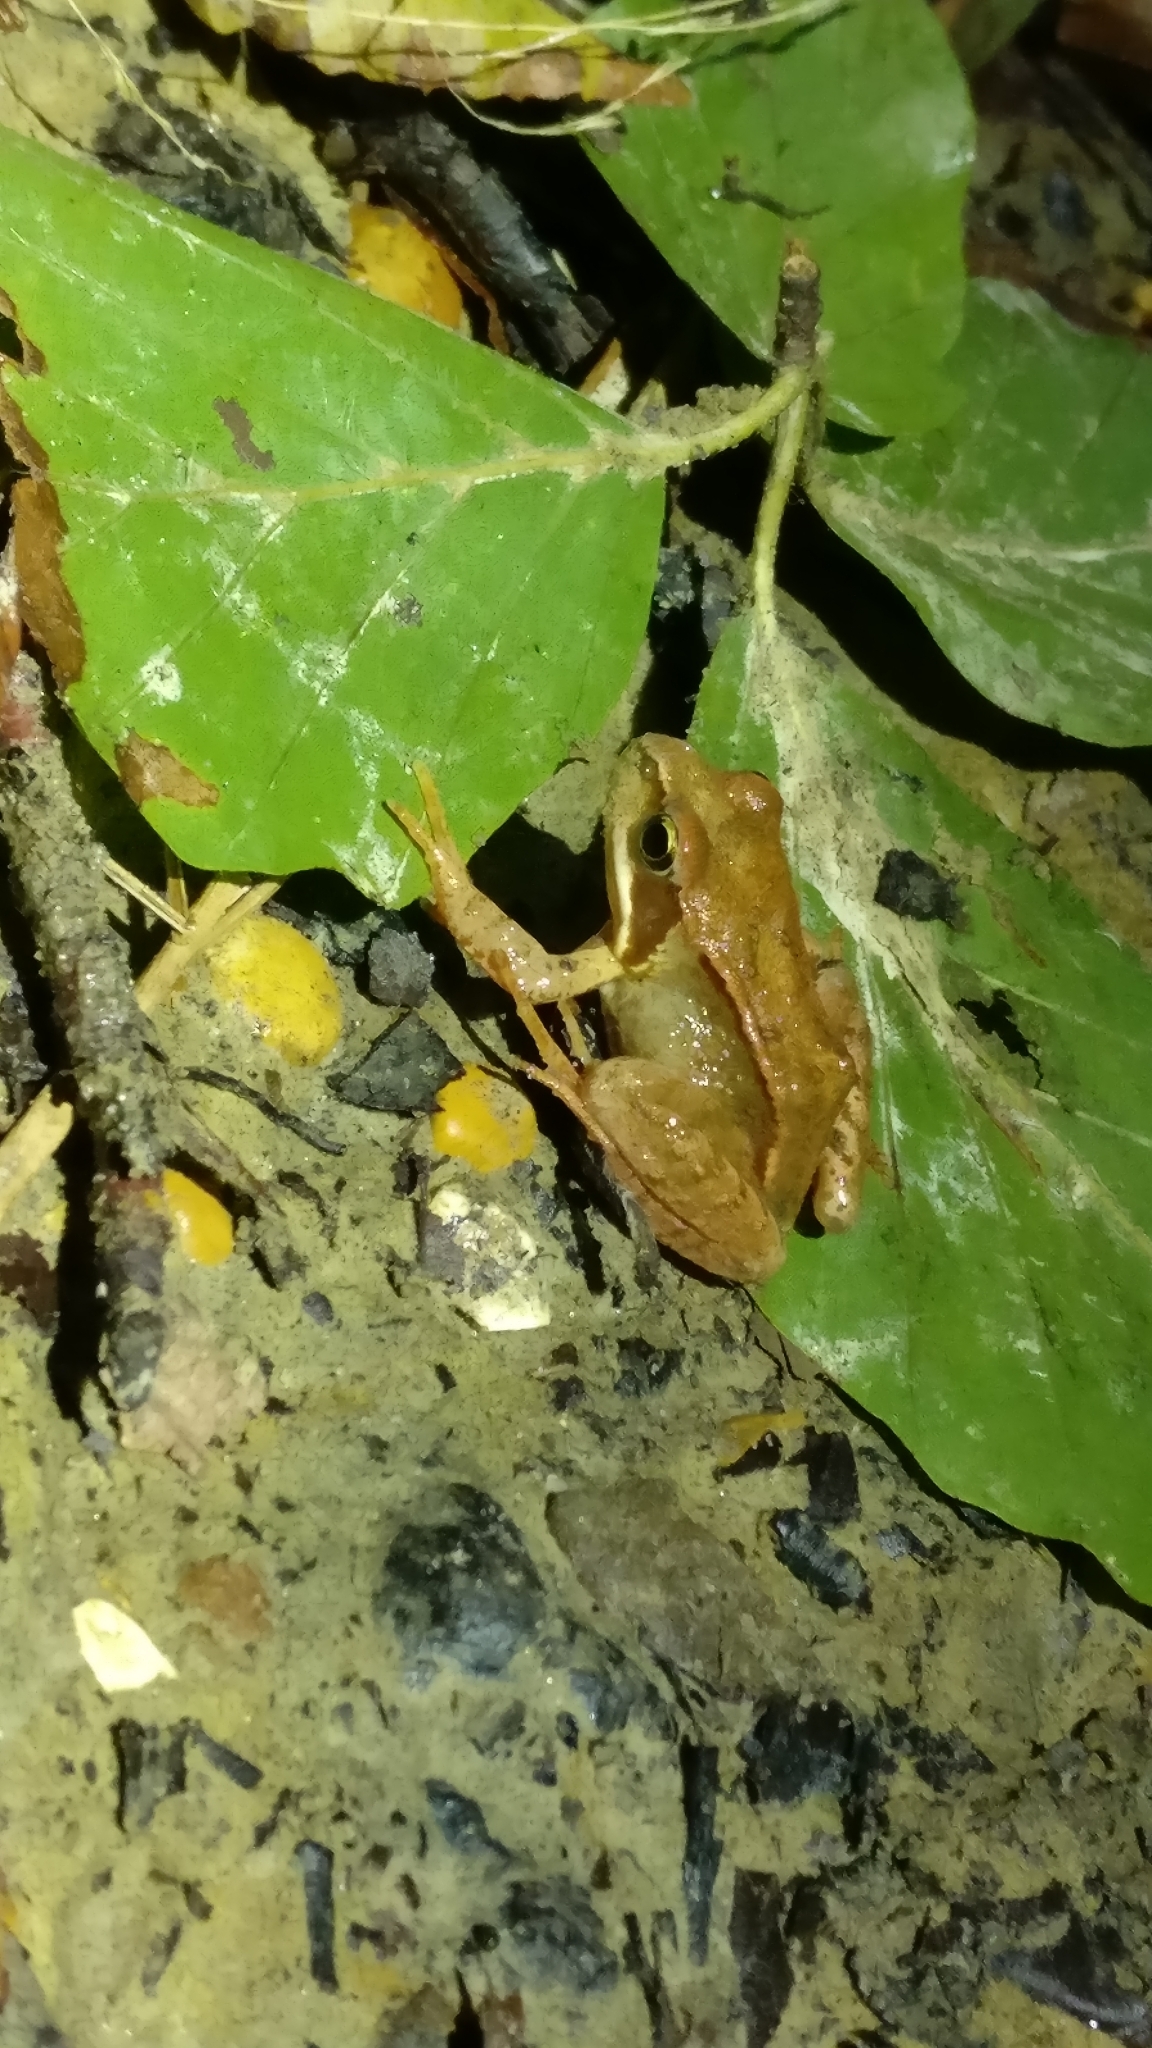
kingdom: Animalia
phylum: Chordata
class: Amphibia
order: Anura
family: Ranidae
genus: Rana
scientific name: Rana temporaria
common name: Common frog
